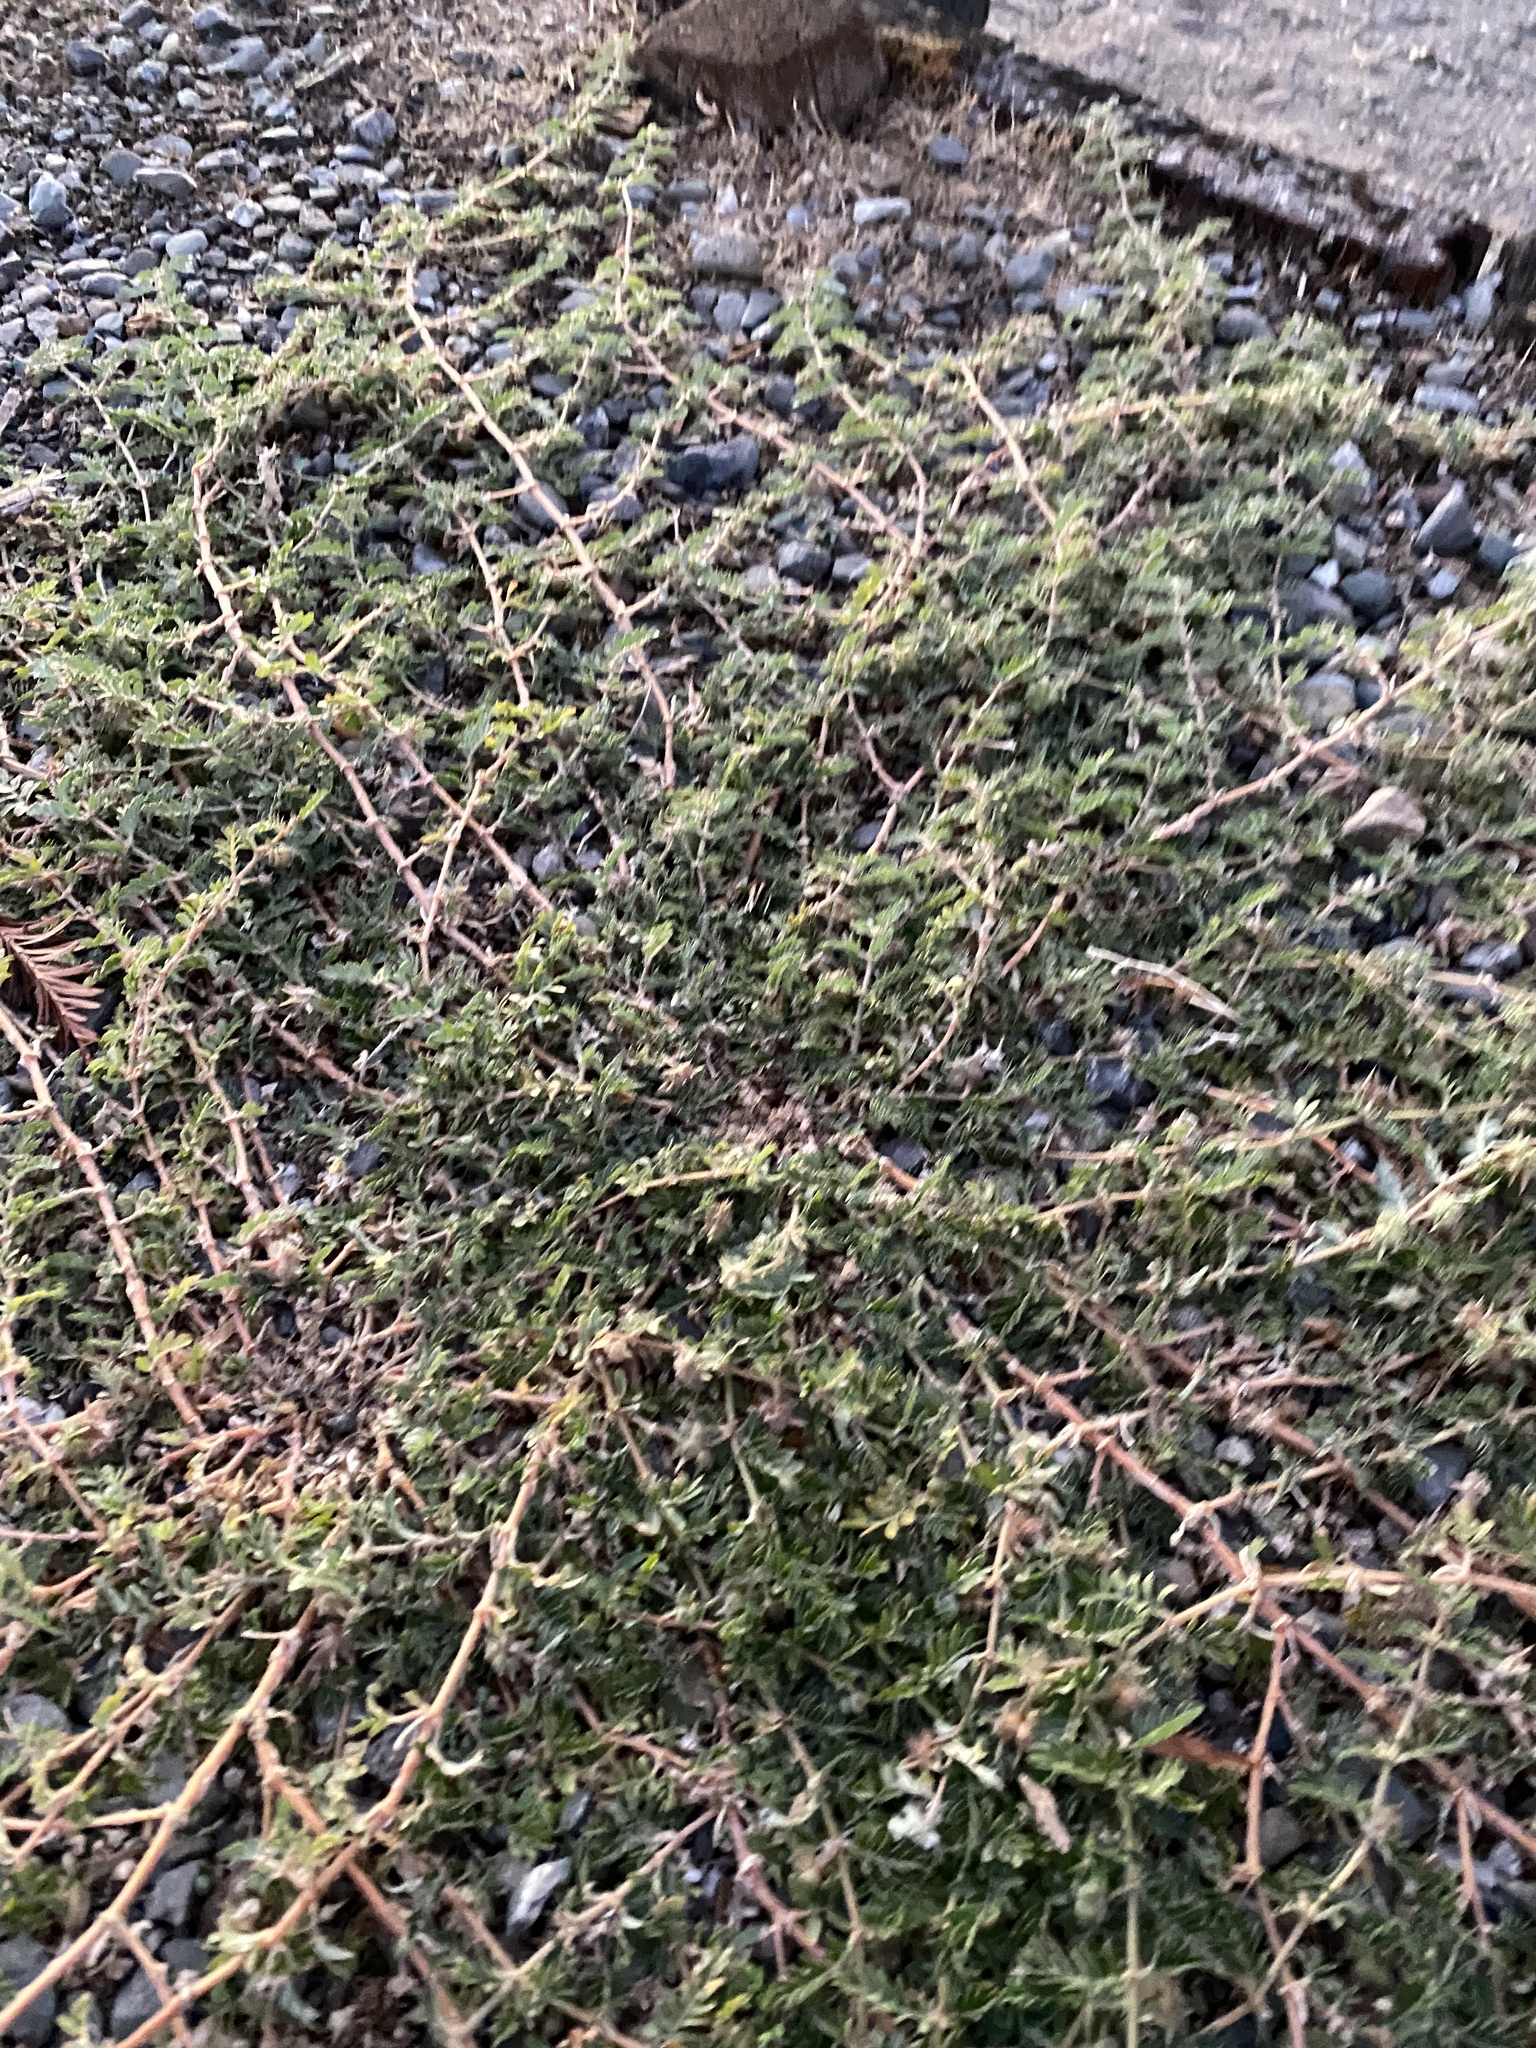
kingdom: Plantae
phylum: Tracheophyta
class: Magnoliopsida
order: Zygophyllales
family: Zygophyllaceae
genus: Tribulus
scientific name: Tribulus terrestris
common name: Puncturevine
